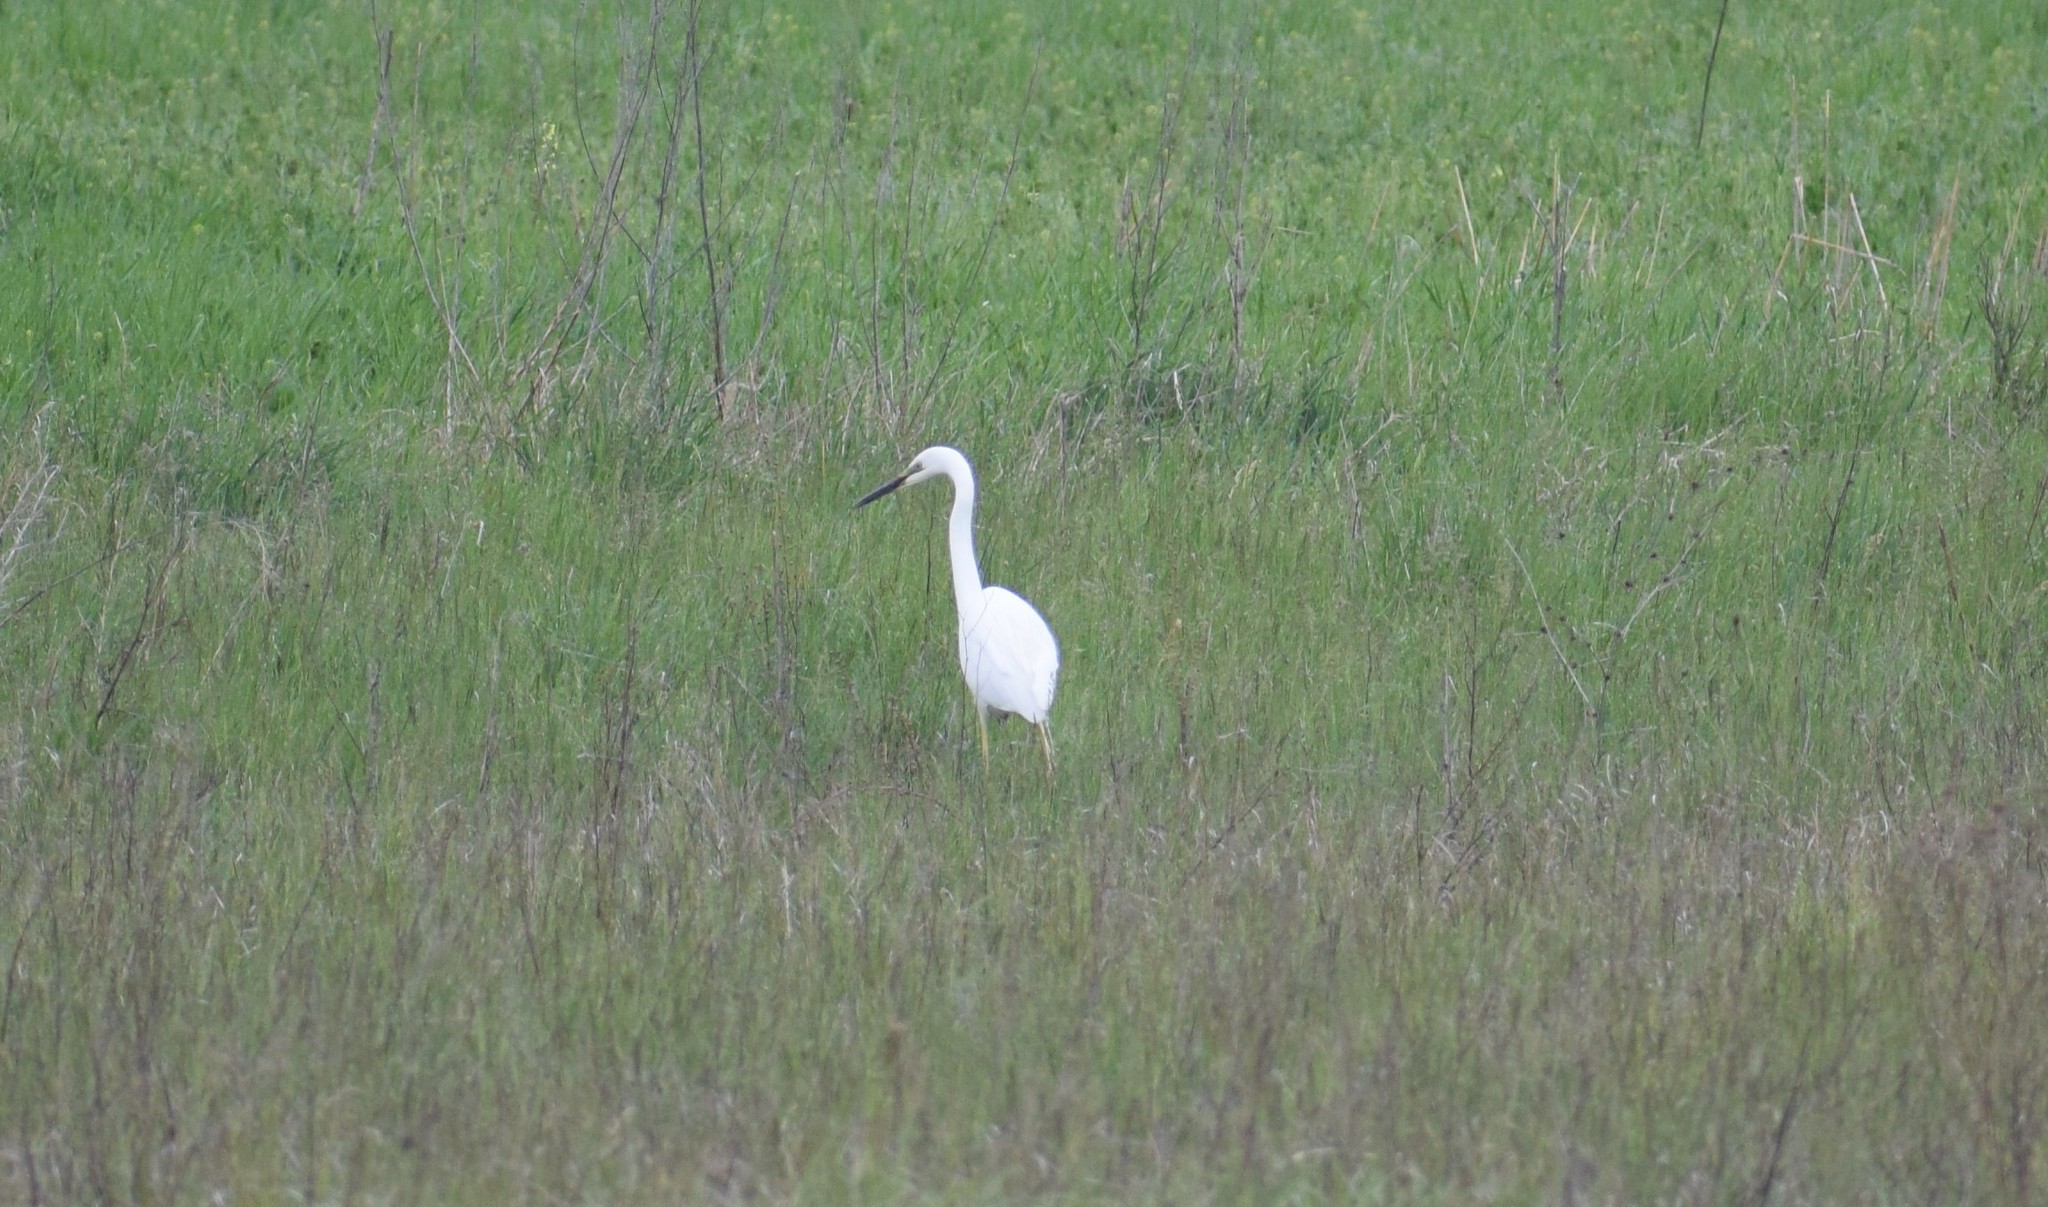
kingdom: Animalia
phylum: Chordata
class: Aves
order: Pelecaniformes
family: Ardeidae
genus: Ardea
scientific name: Ardea alba
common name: Great egret
